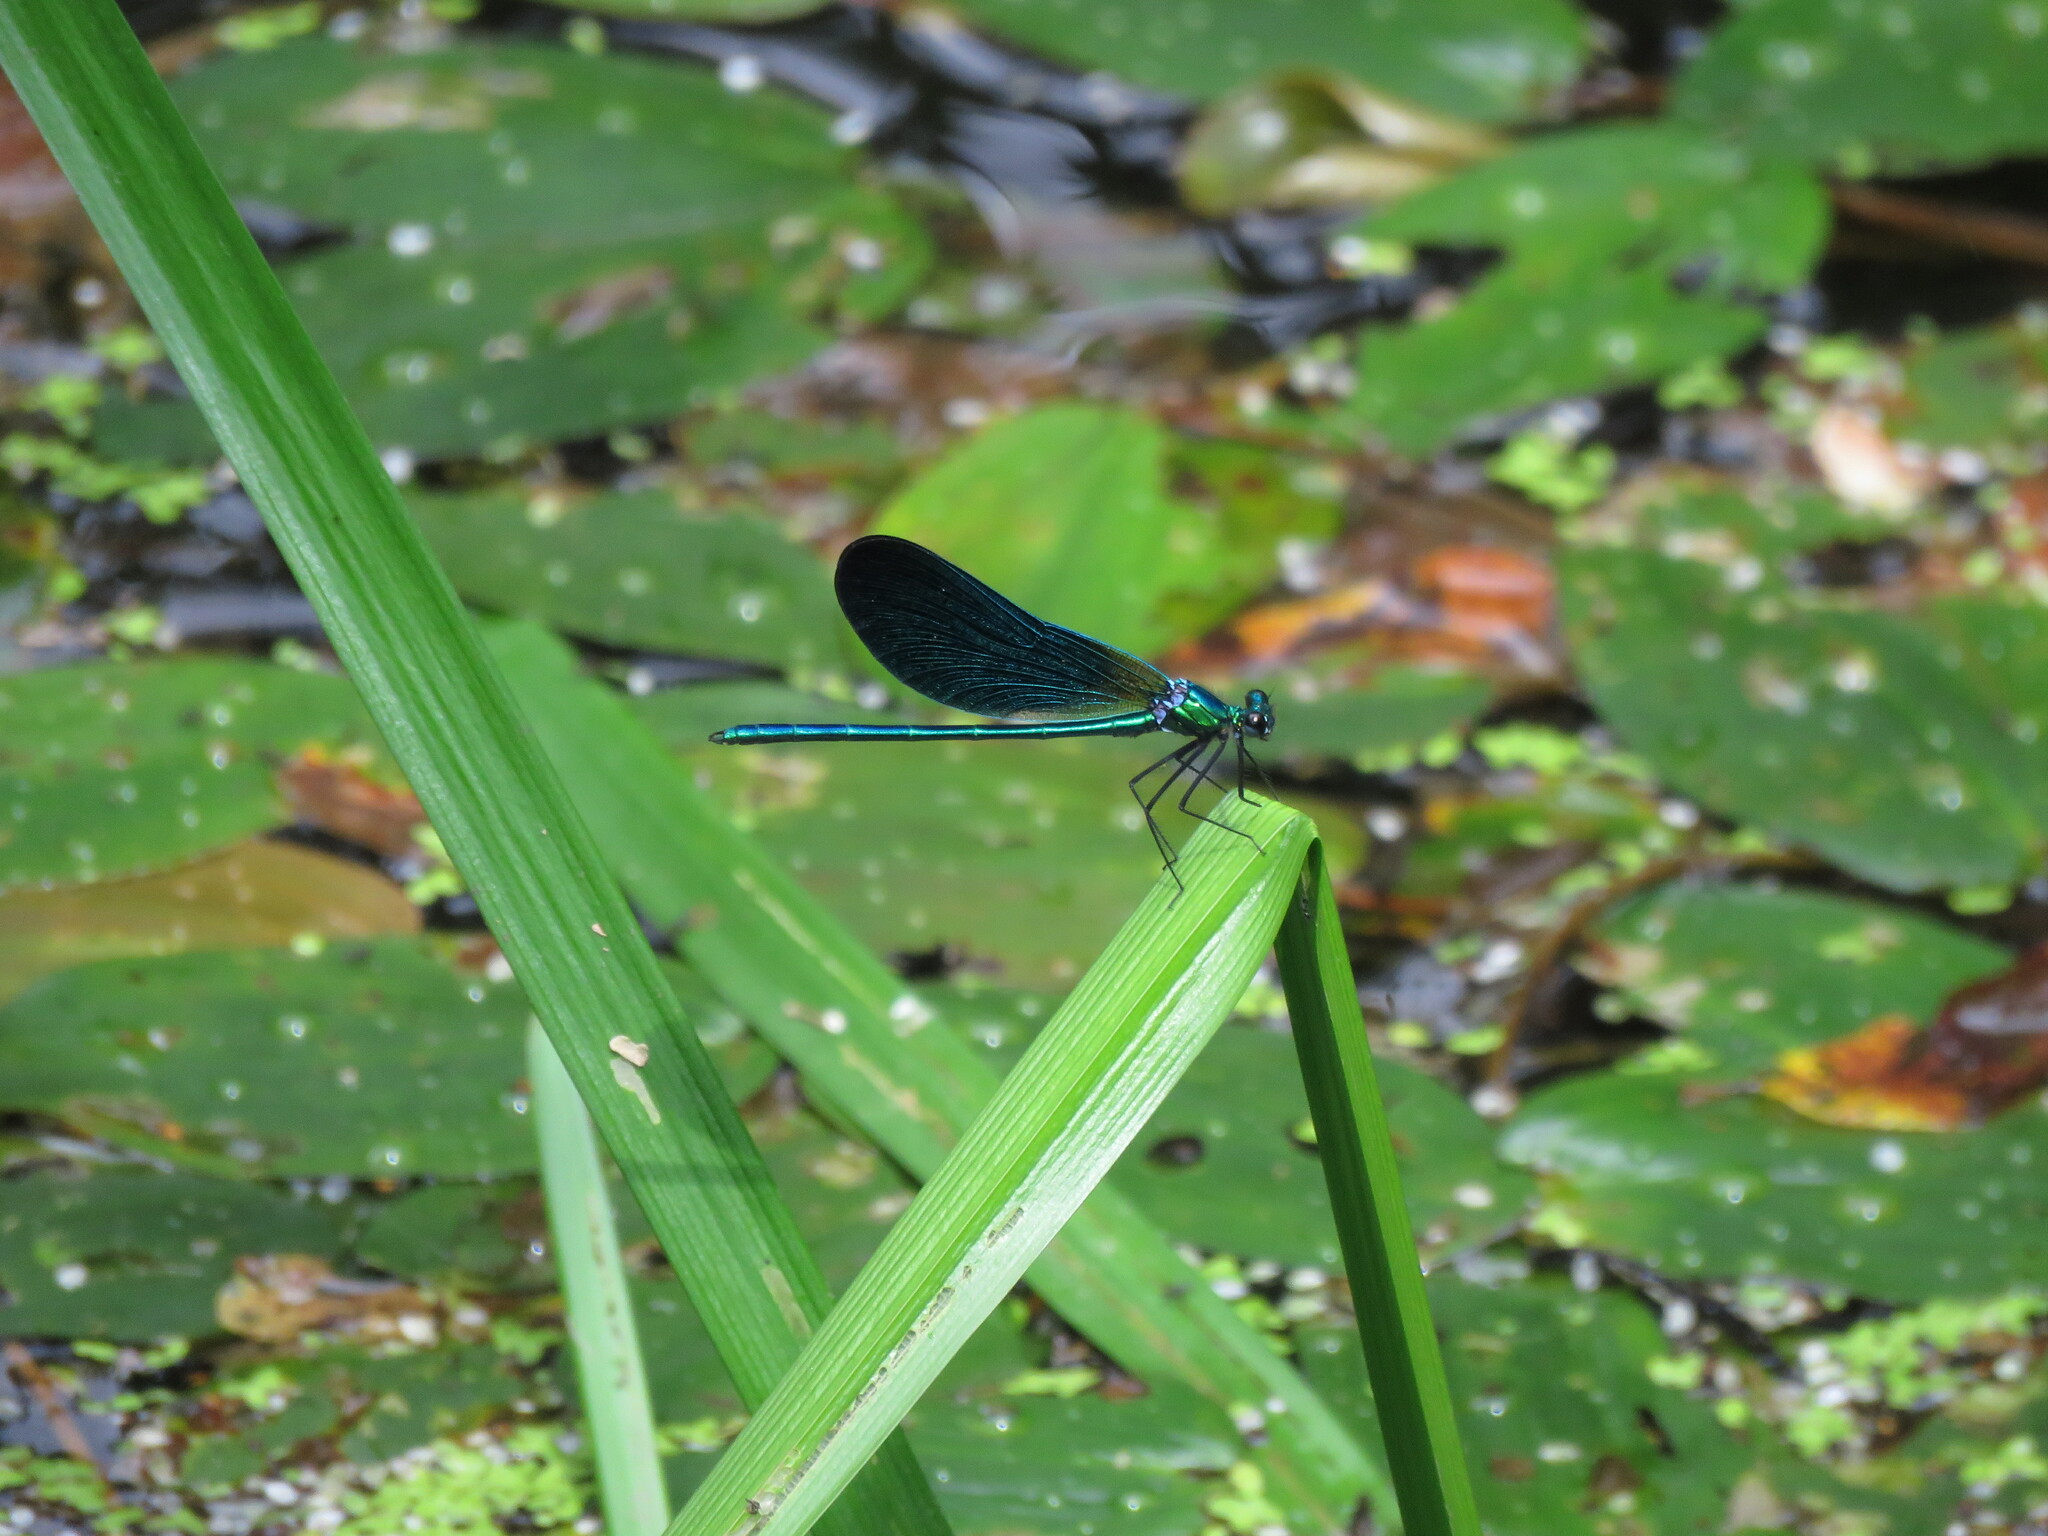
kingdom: Animalia
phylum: Arthropoda
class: Insecta
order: Odonata
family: Calopterygidae
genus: Calopteryx
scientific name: Calopteryx virgo
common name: Beautiful demoiselle
